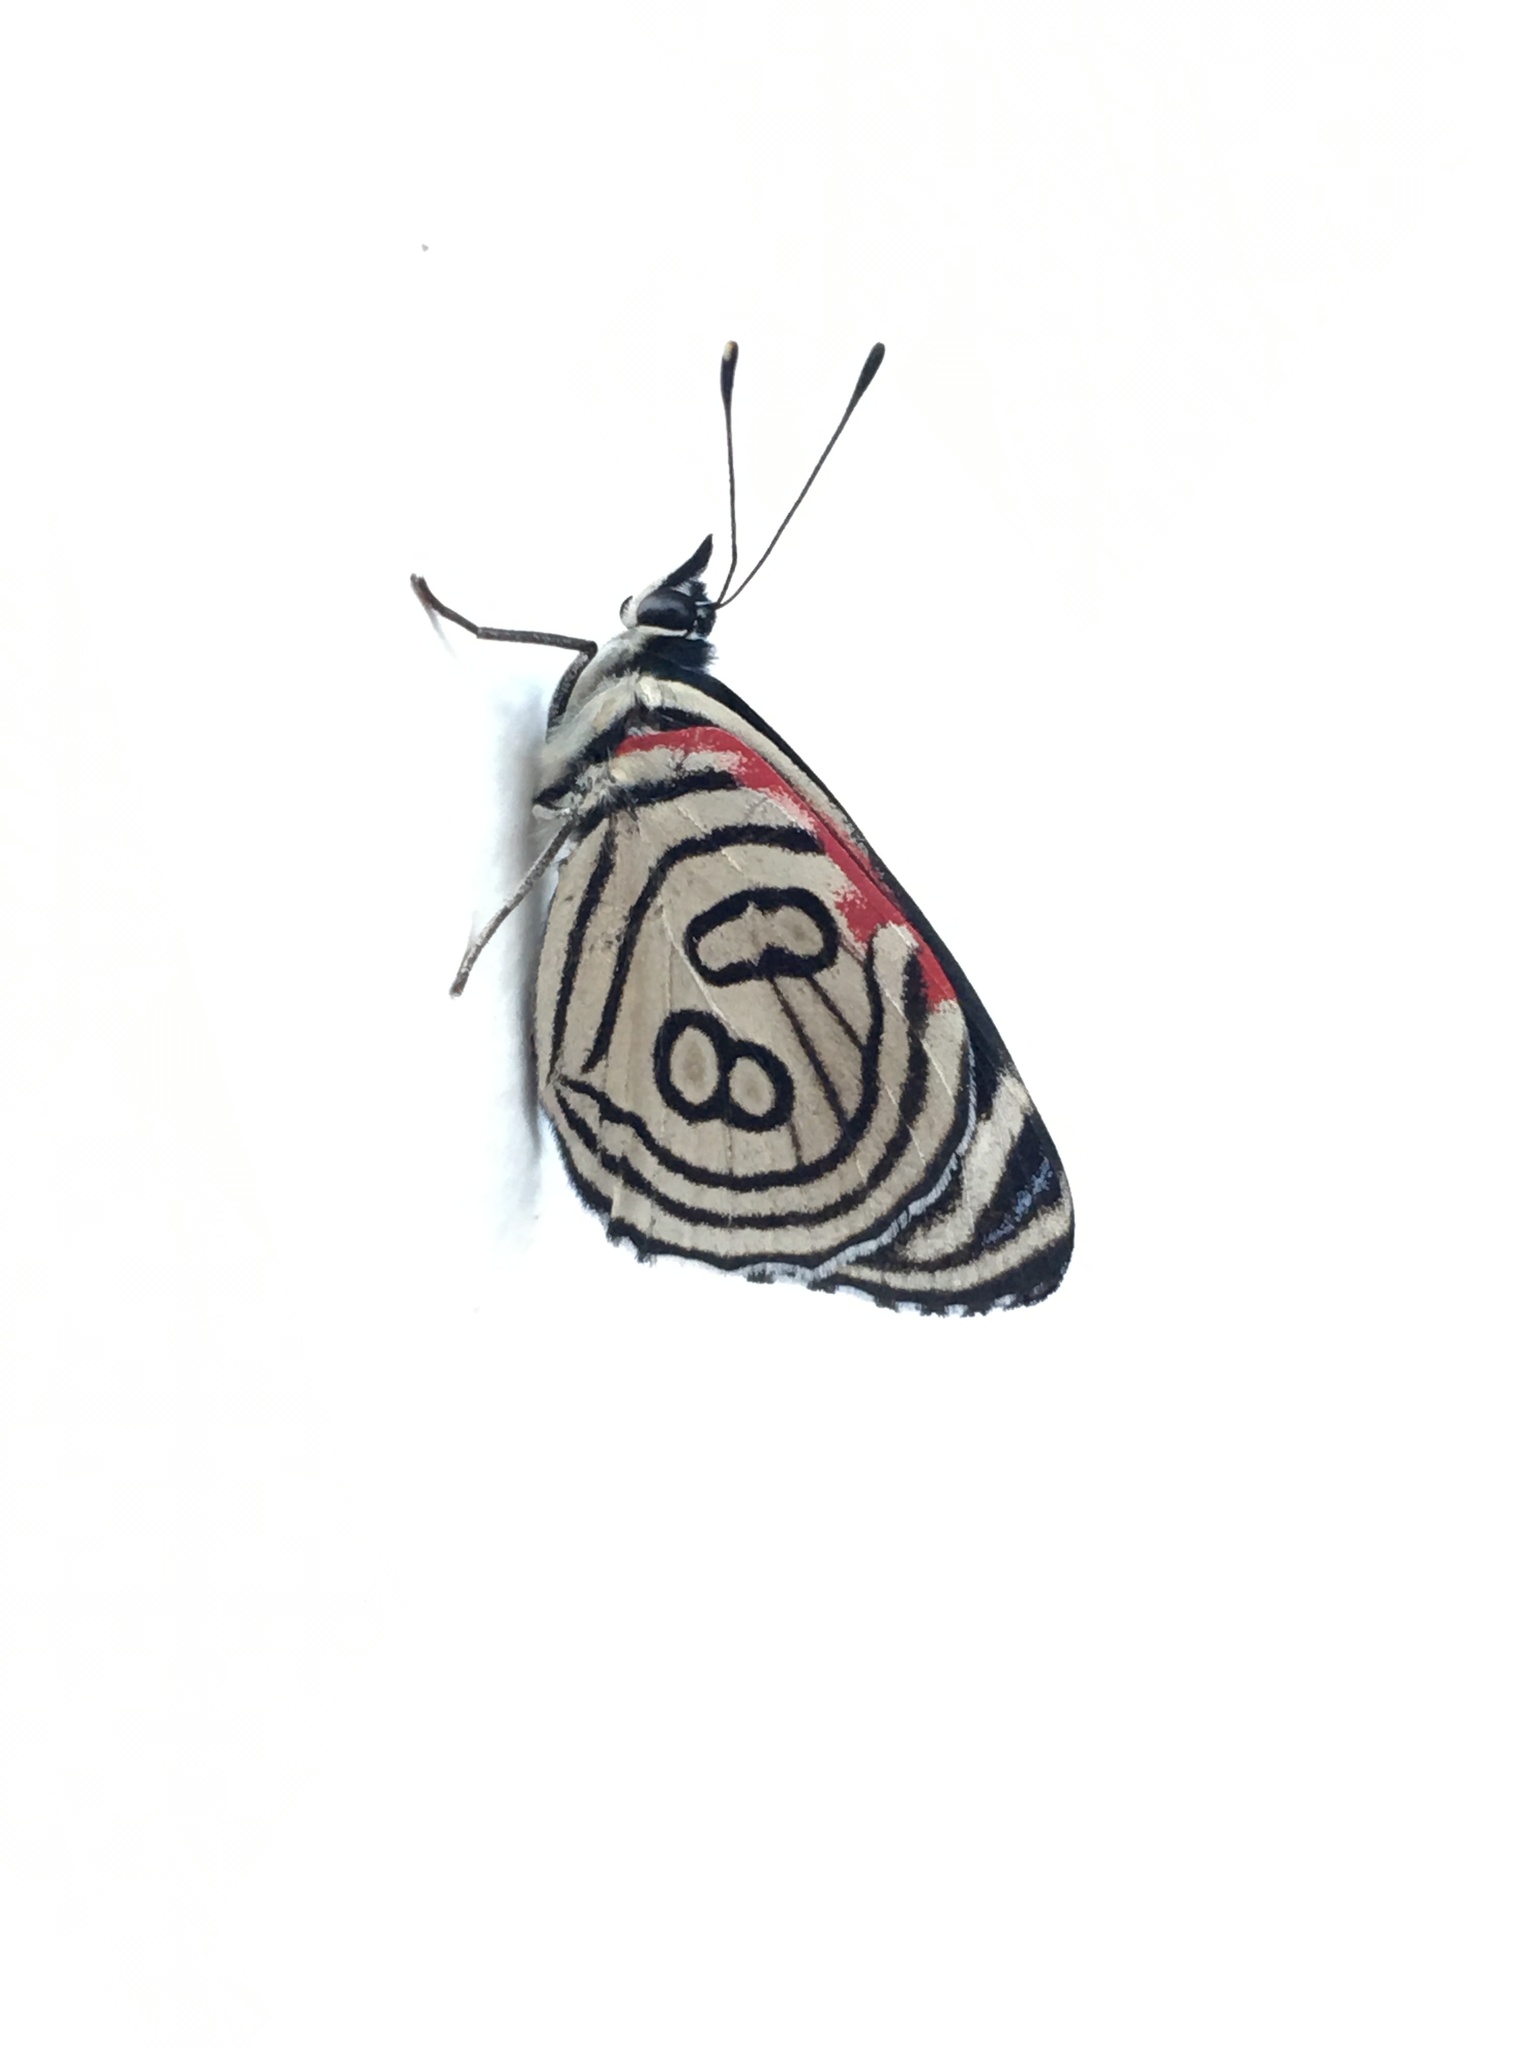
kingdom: Animalia
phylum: Arthropoda
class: Insecta
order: Lepidoptera
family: Nymphalidae
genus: Diaethria
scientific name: Diaethria candrena
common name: Number eighty
